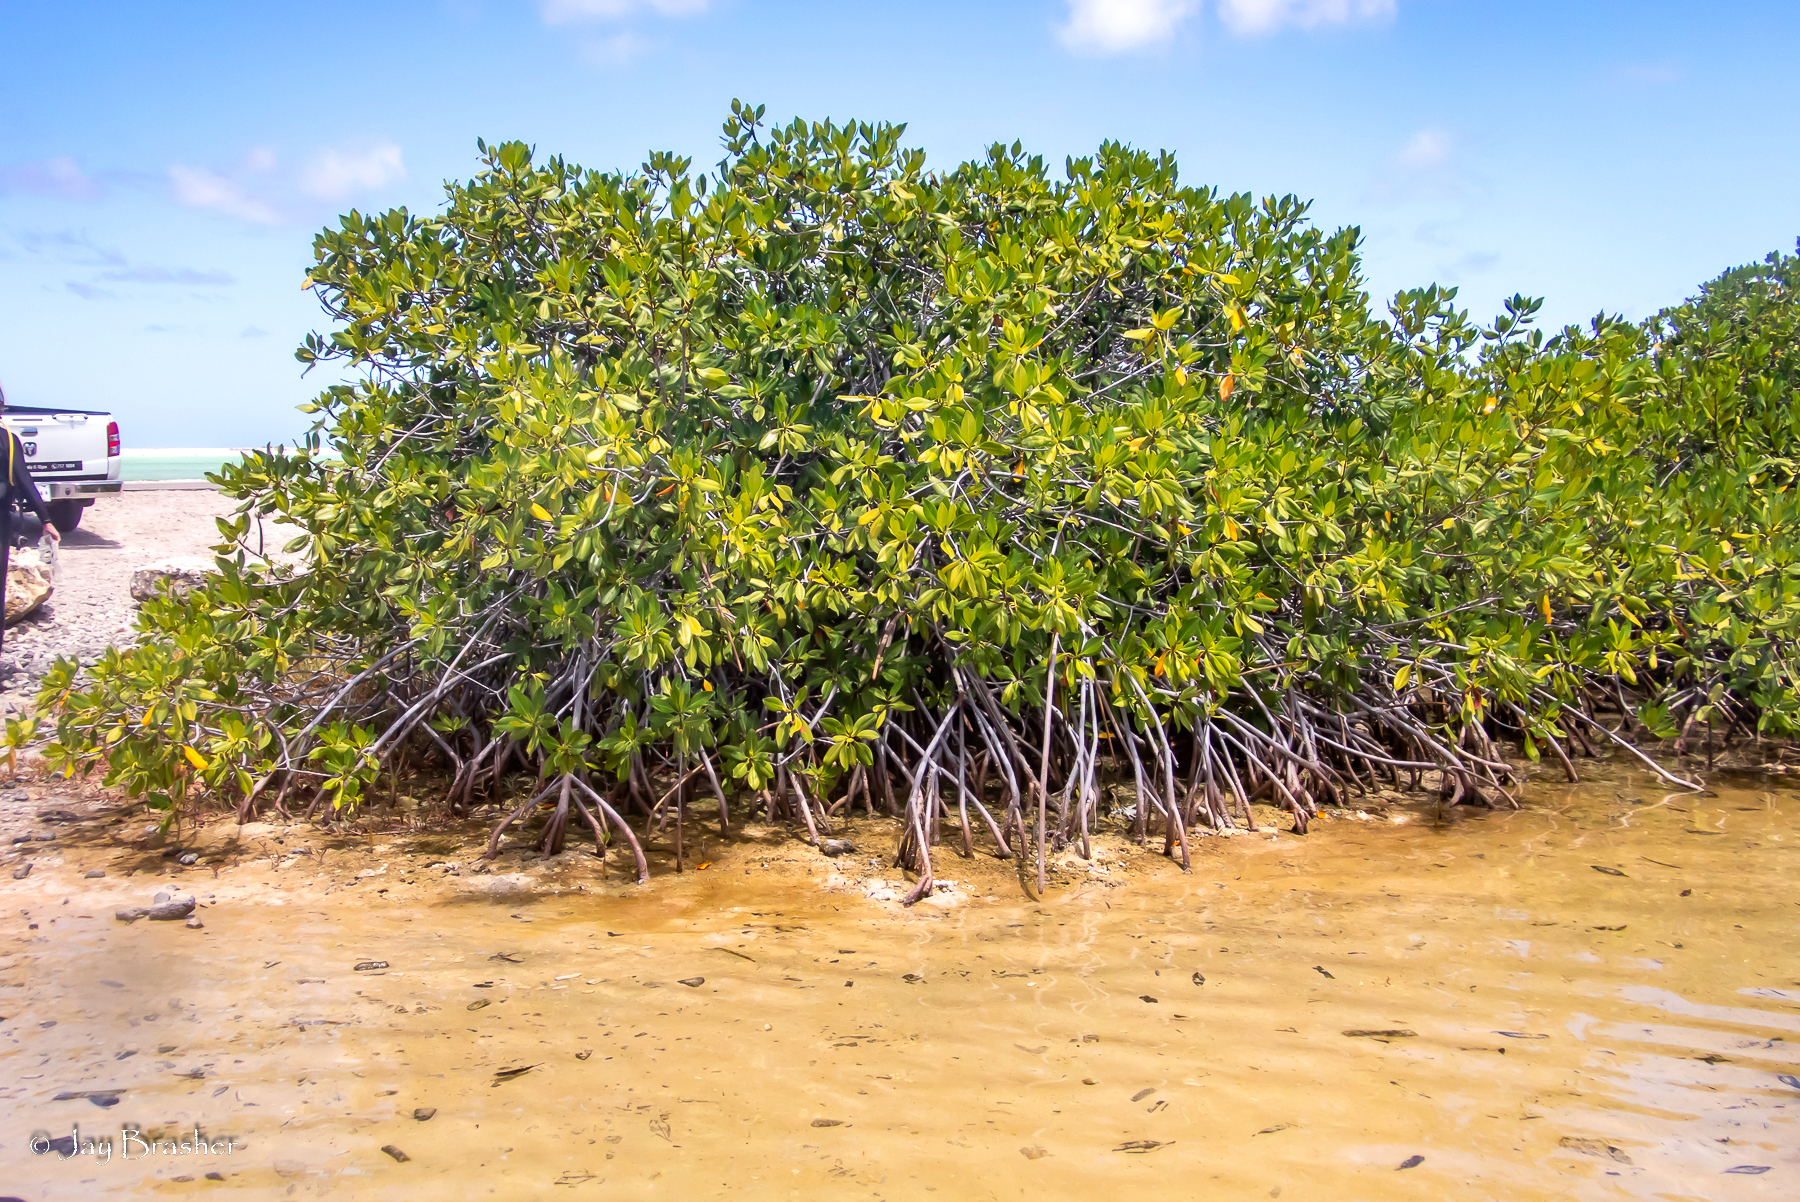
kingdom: Plantae
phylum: Tracheophyta
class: Magnoliopsida
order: Malpighiales
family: Rhizophoraceae
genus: Rhizophora
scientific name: Rhizophora mangle
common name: Red mangrove
